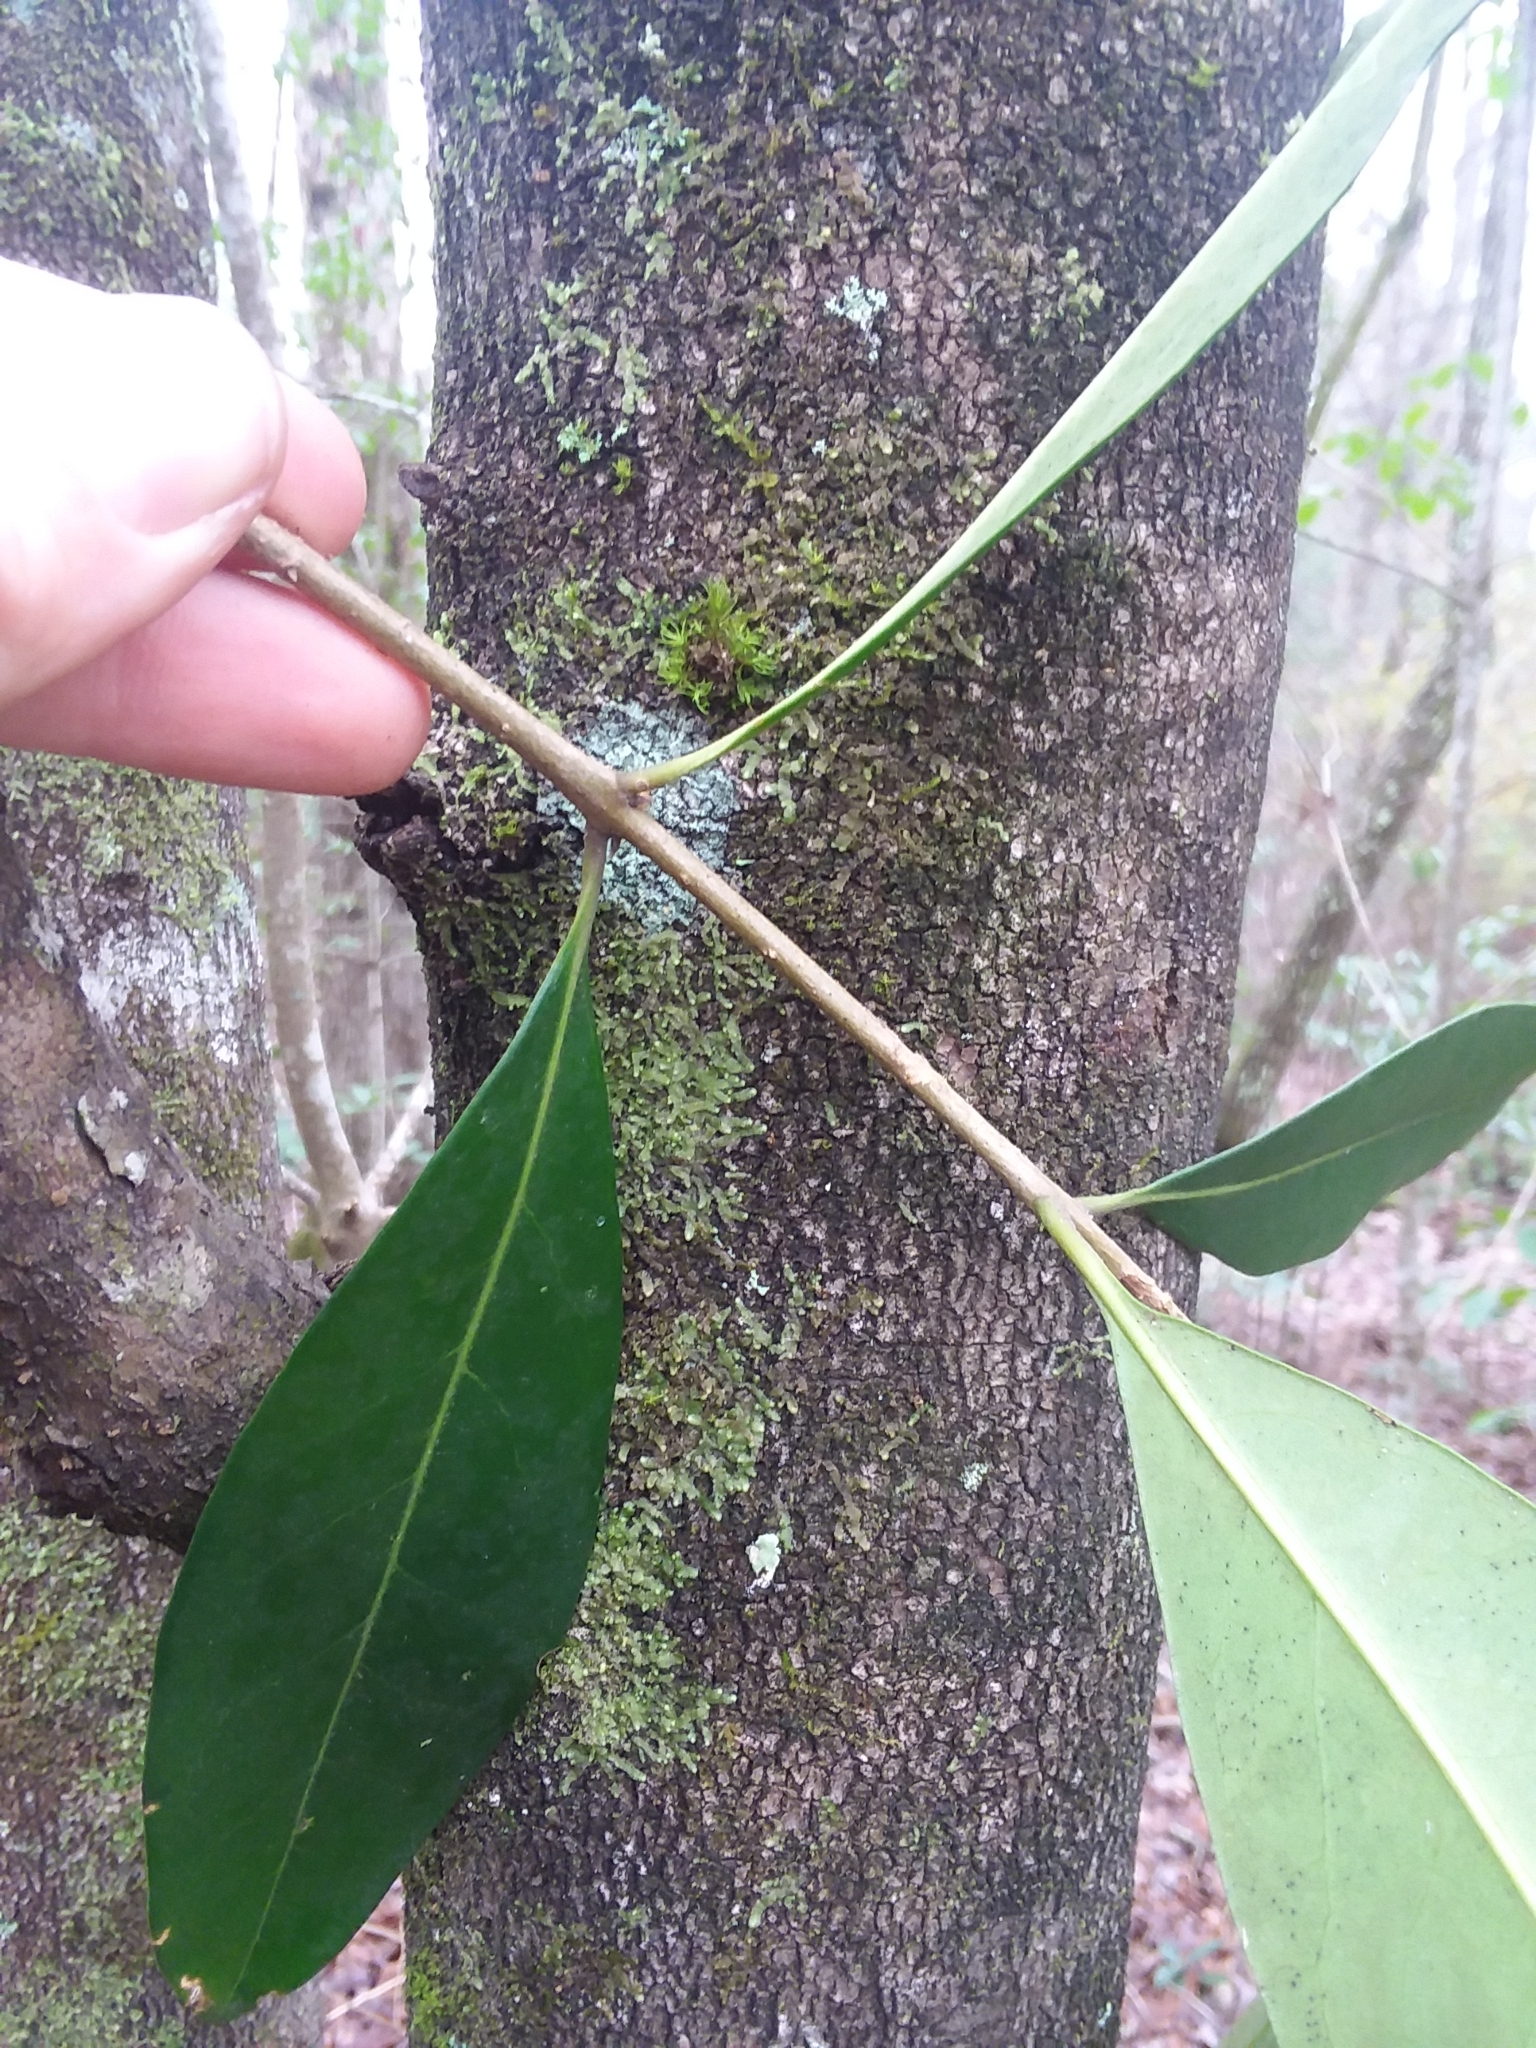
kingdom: Plantae
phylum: Tracheophyta
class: Magnoliopsida
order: Lamiales
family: Oleaceae
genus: Cartrema
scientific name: Cartrema americana
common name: Devilwood
